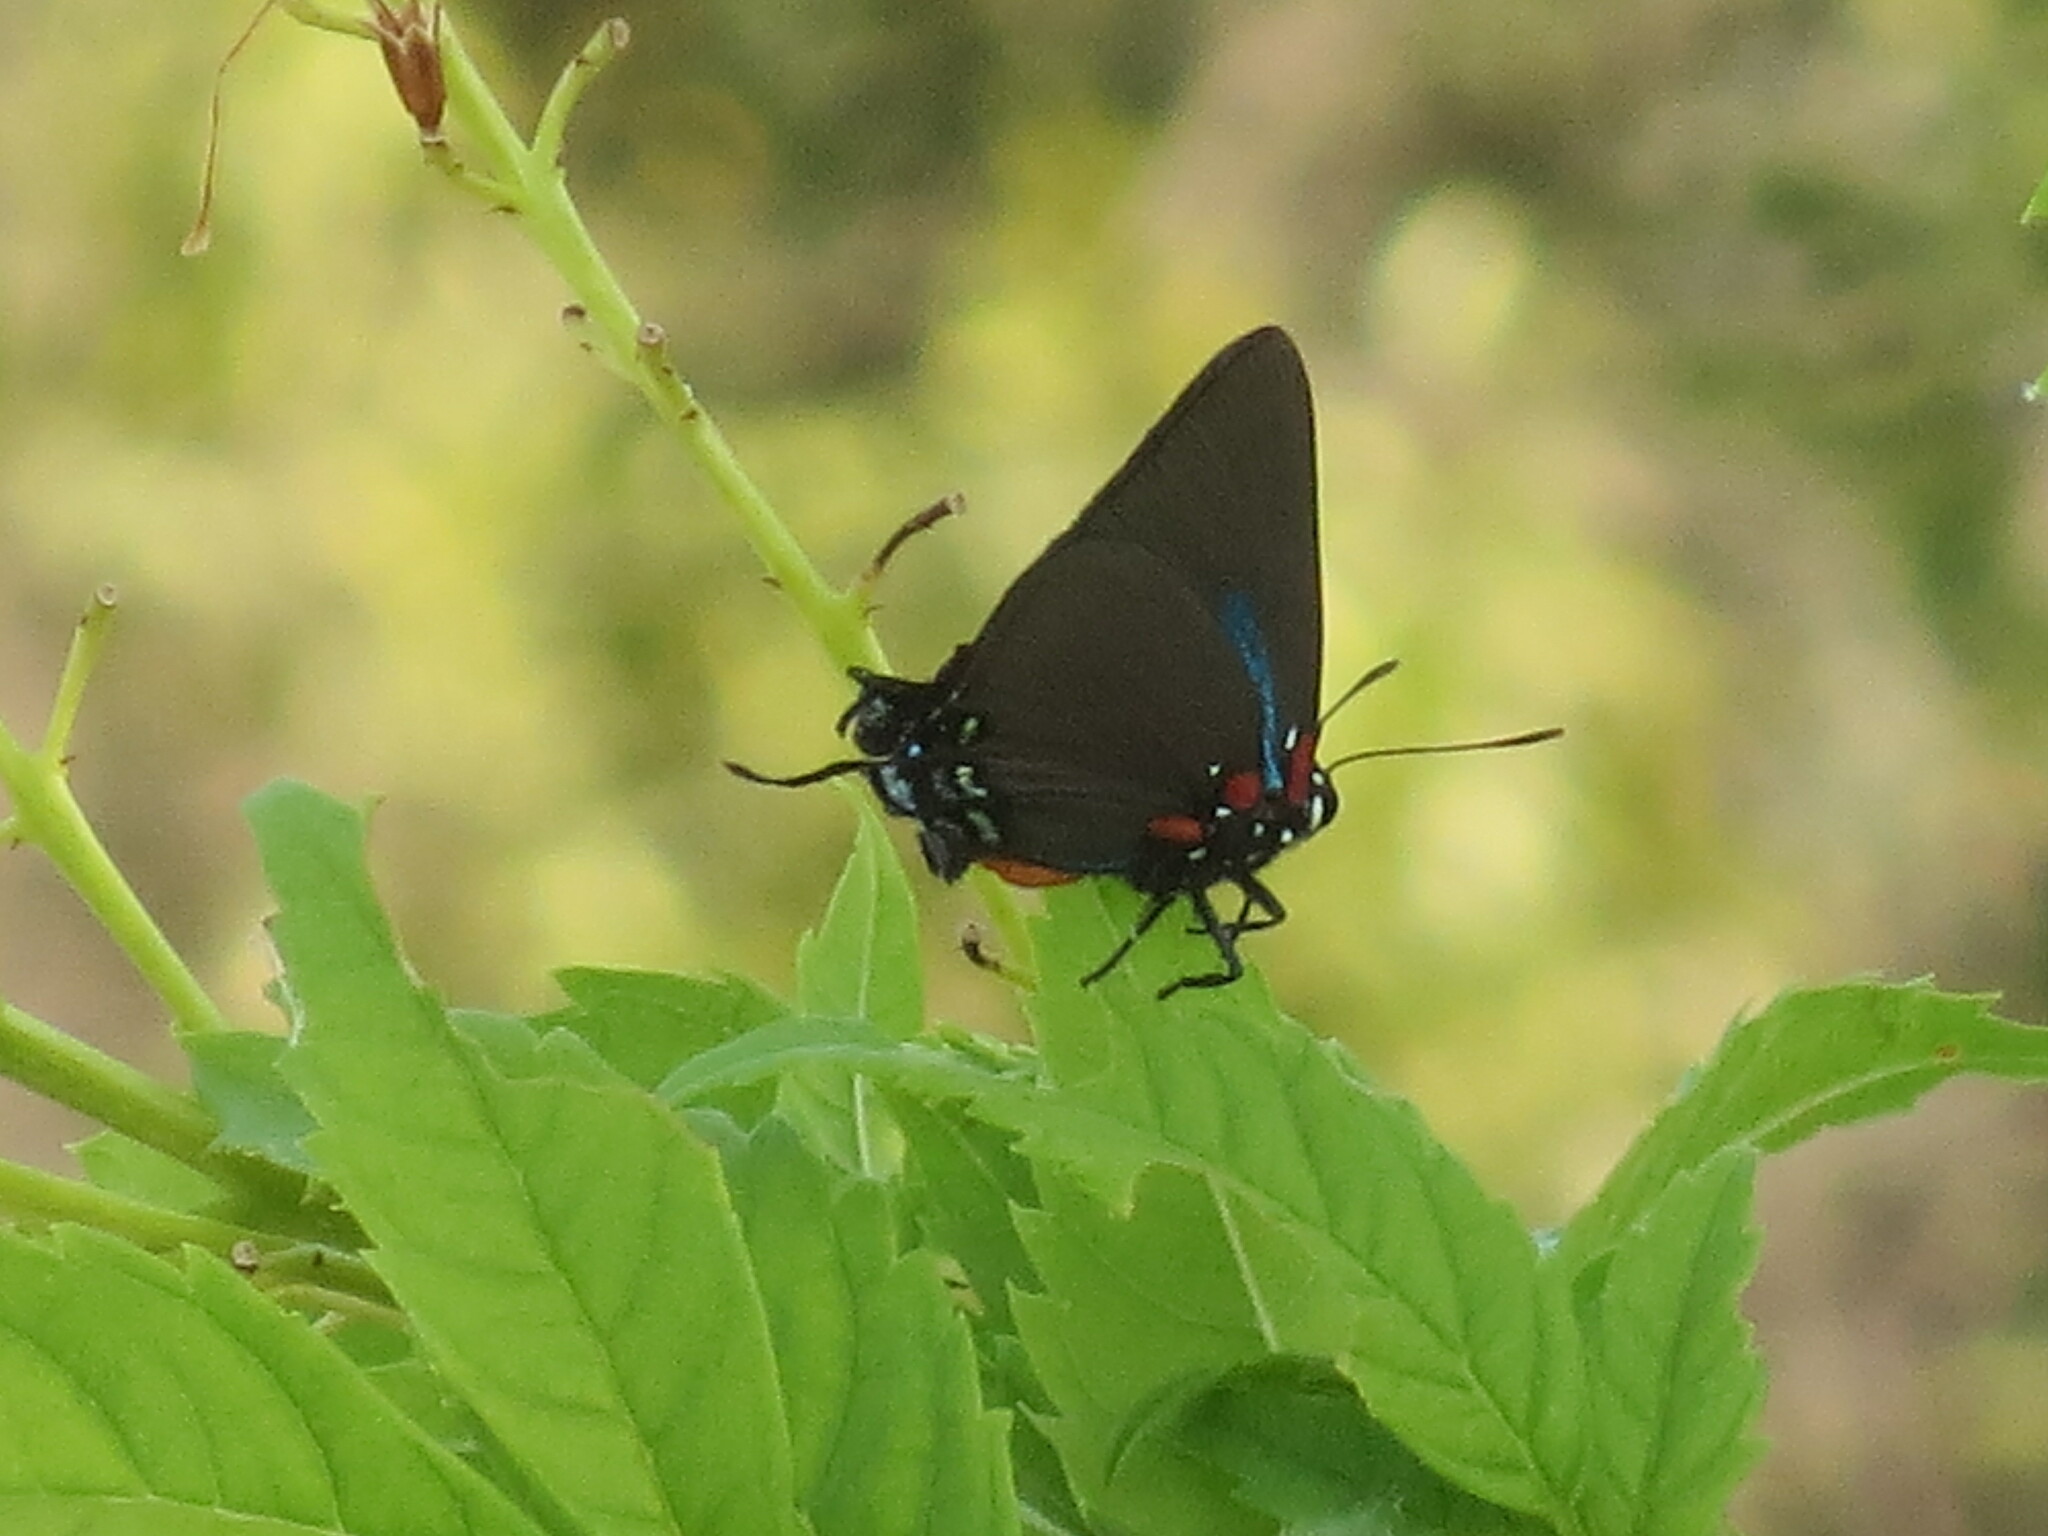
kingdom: Animalia
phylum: Arthropoda
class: Insecta
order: Lepidoptera
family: Lycaenidae
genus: Atlides
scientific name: Atlides halesus
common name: Great purple hairstreak
